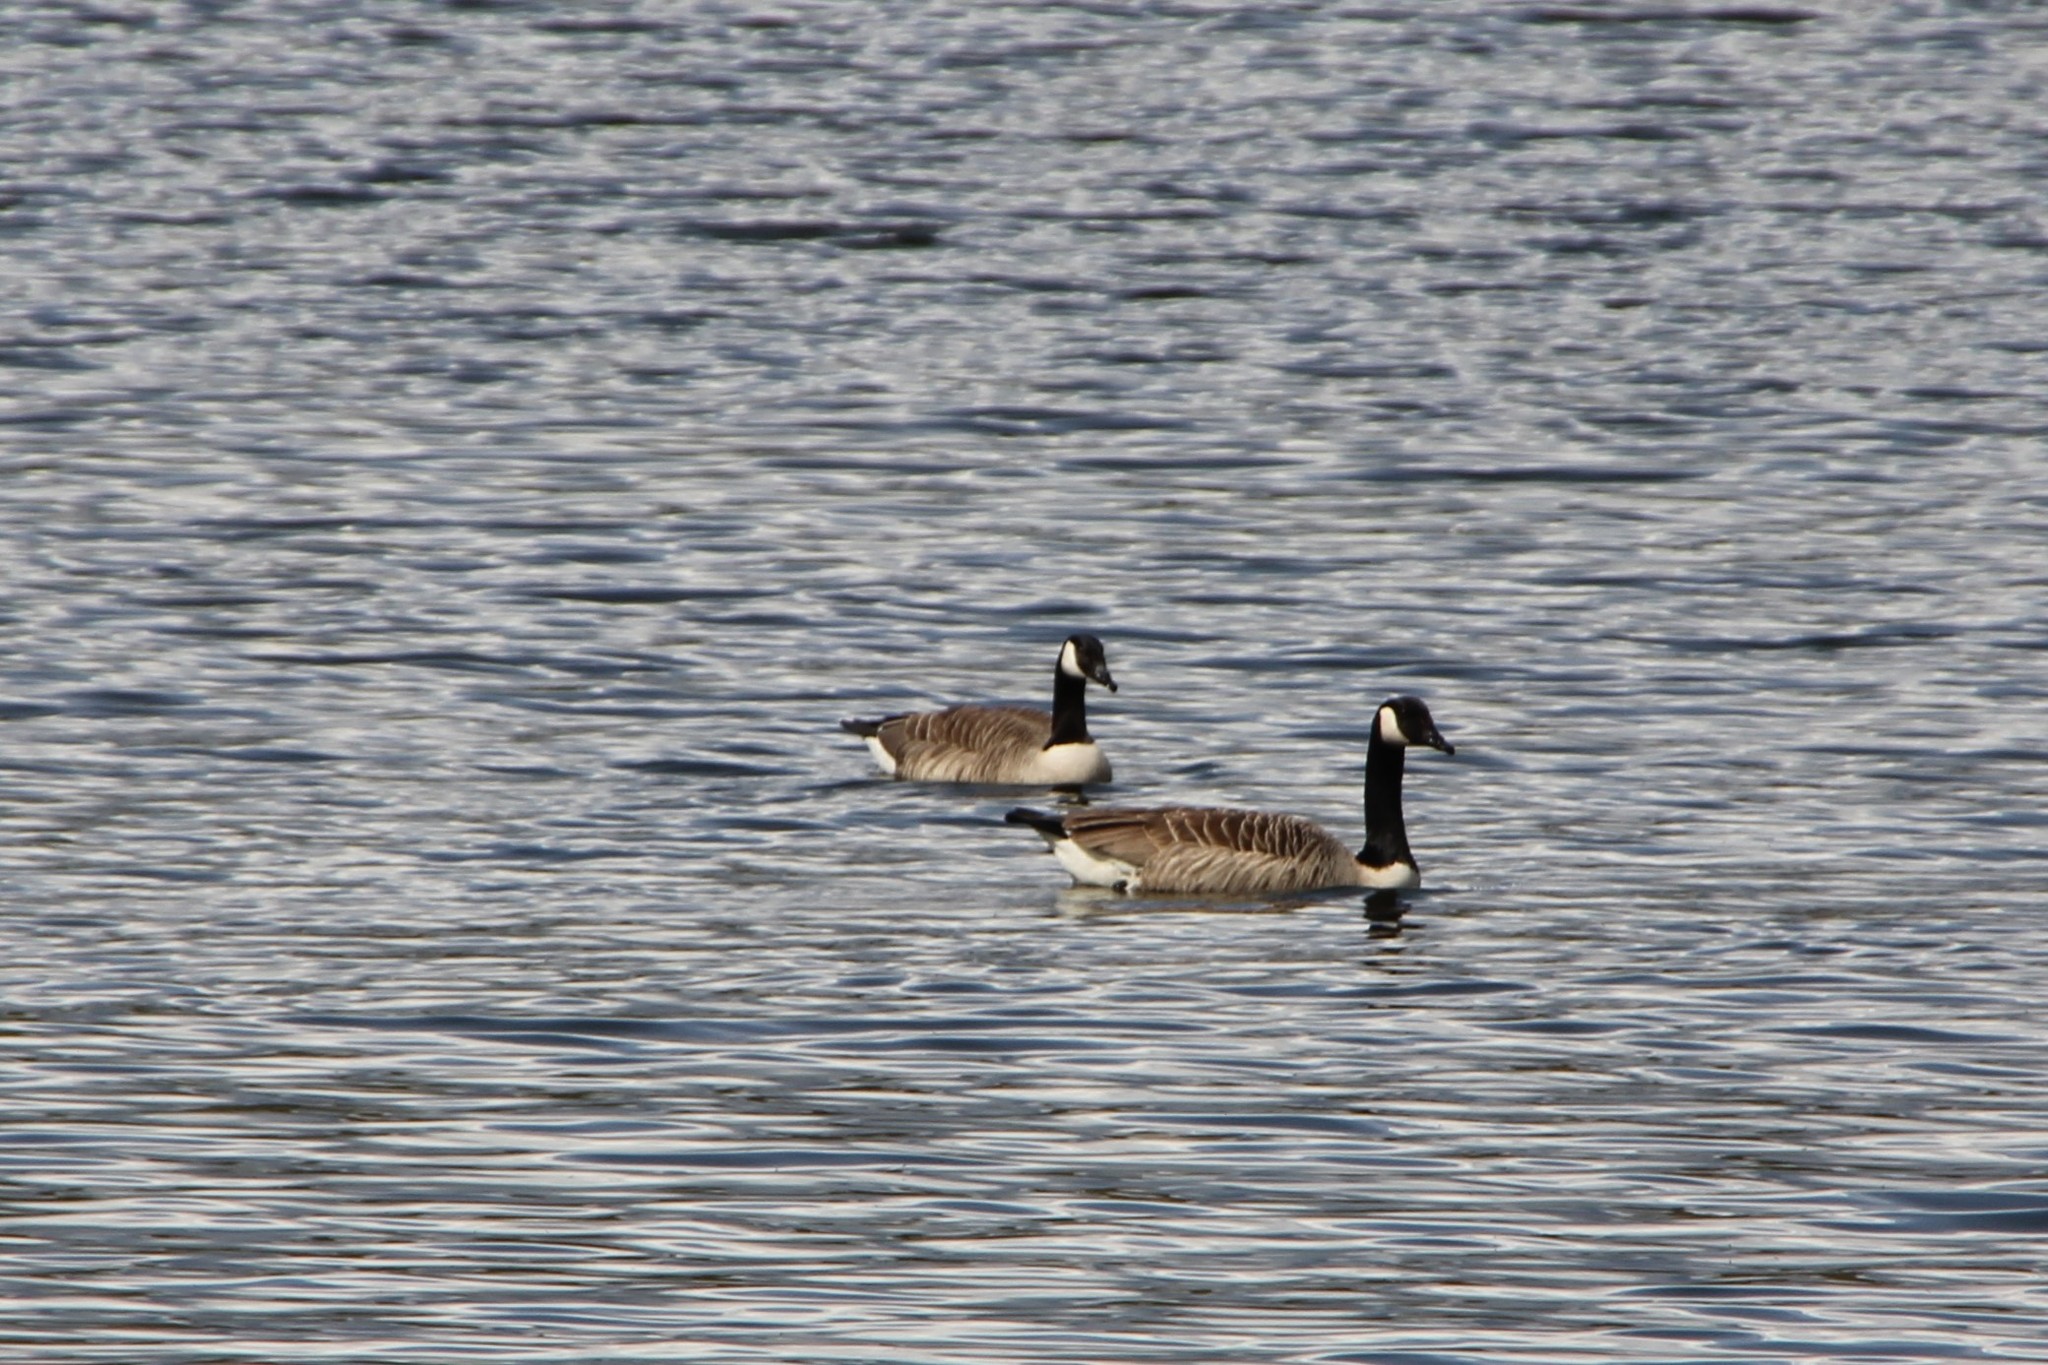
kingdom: Animalia
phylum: Chordata
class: Aves
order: Anseriformes
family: Anatidae
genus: Branta
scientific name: Branta canadensis
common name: Canada goose
